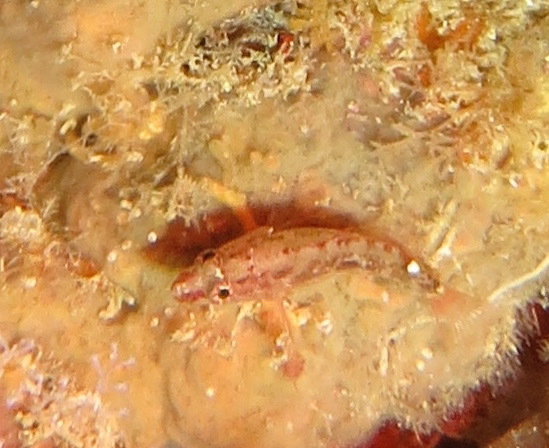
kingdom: Animalia
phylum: Chordata
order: Perciformes
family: Serranidae
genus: Plectranthias
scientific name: Plectranthias longimanus
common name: Longfin perchlet
